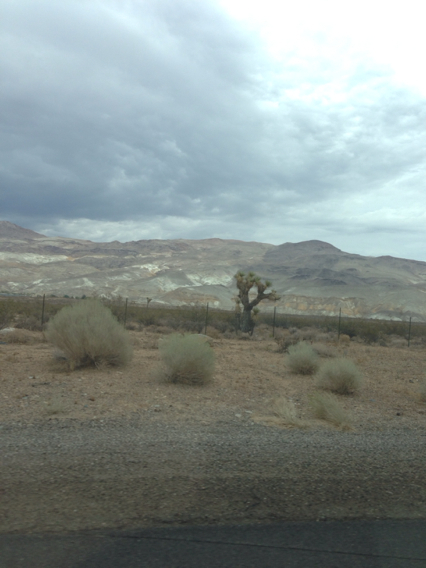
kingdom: Plantae
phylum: Tracheophyta
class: Liliopsida
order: Asparagales
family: Asparagaceae
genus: Yucca
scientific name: Yucca brevifolia
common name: Joshua tree
